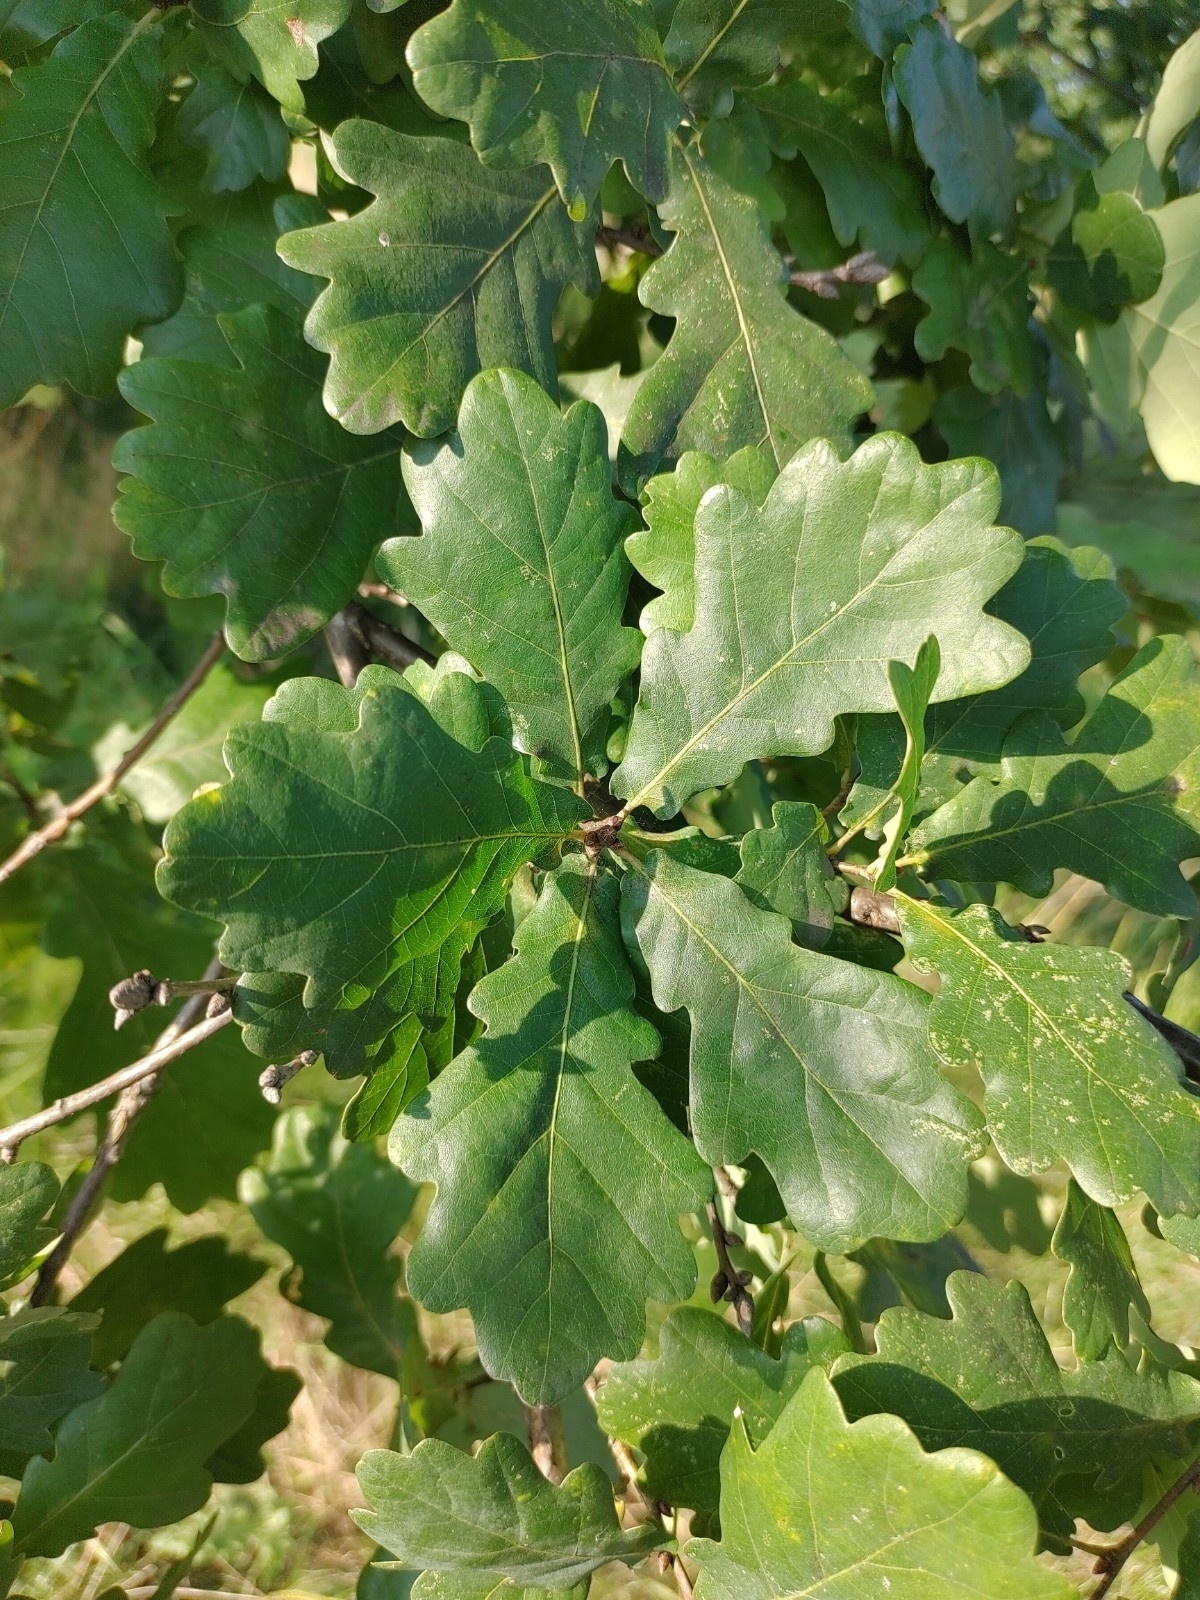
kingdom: Plantae
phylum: Tracheophyta
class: Magnoliopsida
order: Fagales
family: Fagaceae
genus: Quercus
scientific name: Quercus robur
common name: Pedunculate oak
